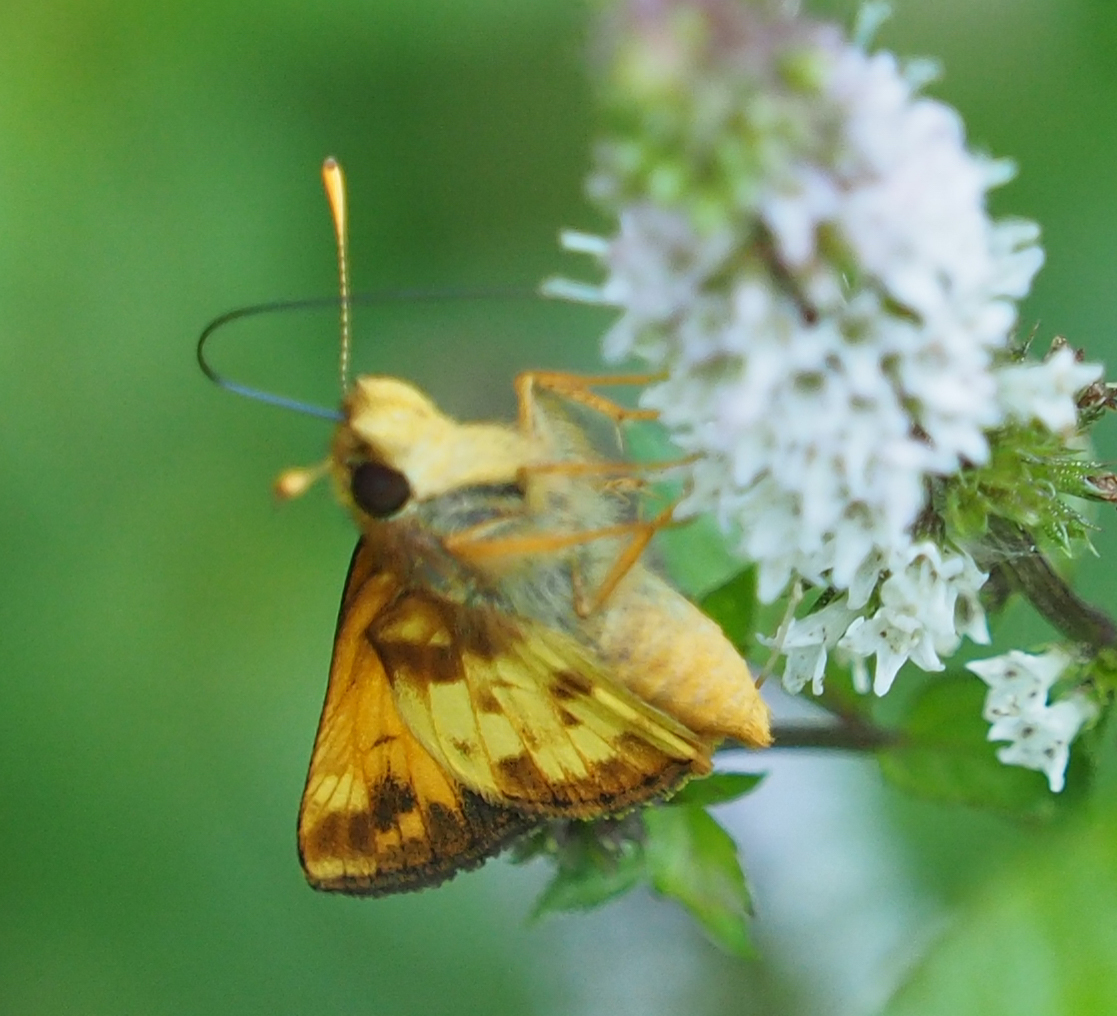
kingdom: Animalia
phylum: Arthropoda
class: Insecta
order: Lepidoptera
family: Hesperiidae
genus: Lon
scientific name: Lon zabulon
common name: Zabulon skipper
